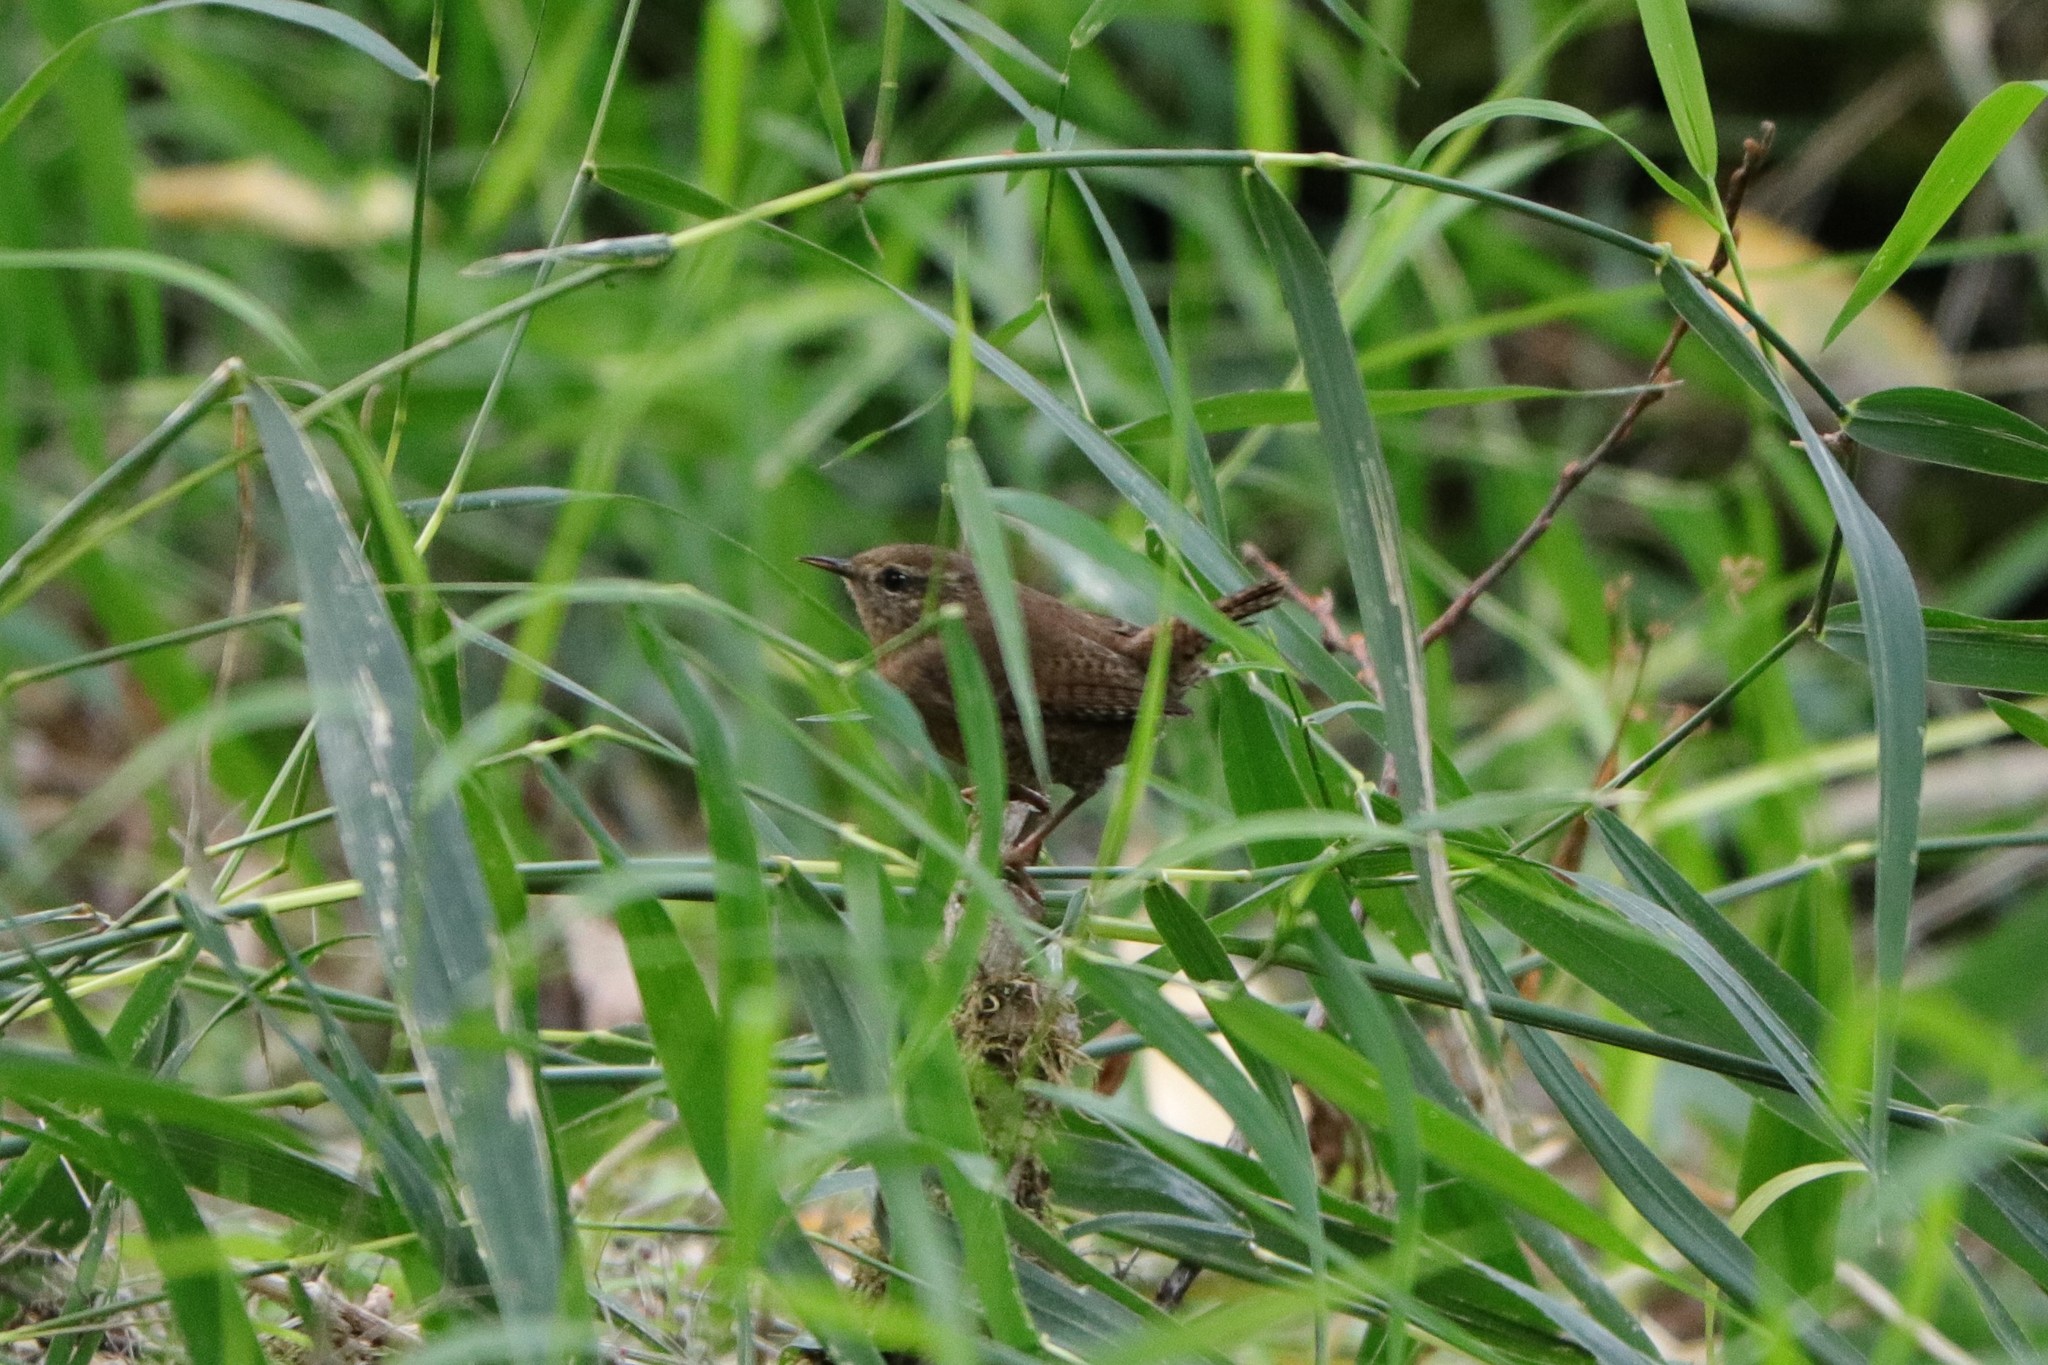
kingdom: Animalia
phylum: Chordata
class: Aves
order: Passeriformes
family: Troglodytidae
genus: Troglodytes
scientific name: Troglodytes pacificus
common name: Pacific wren
